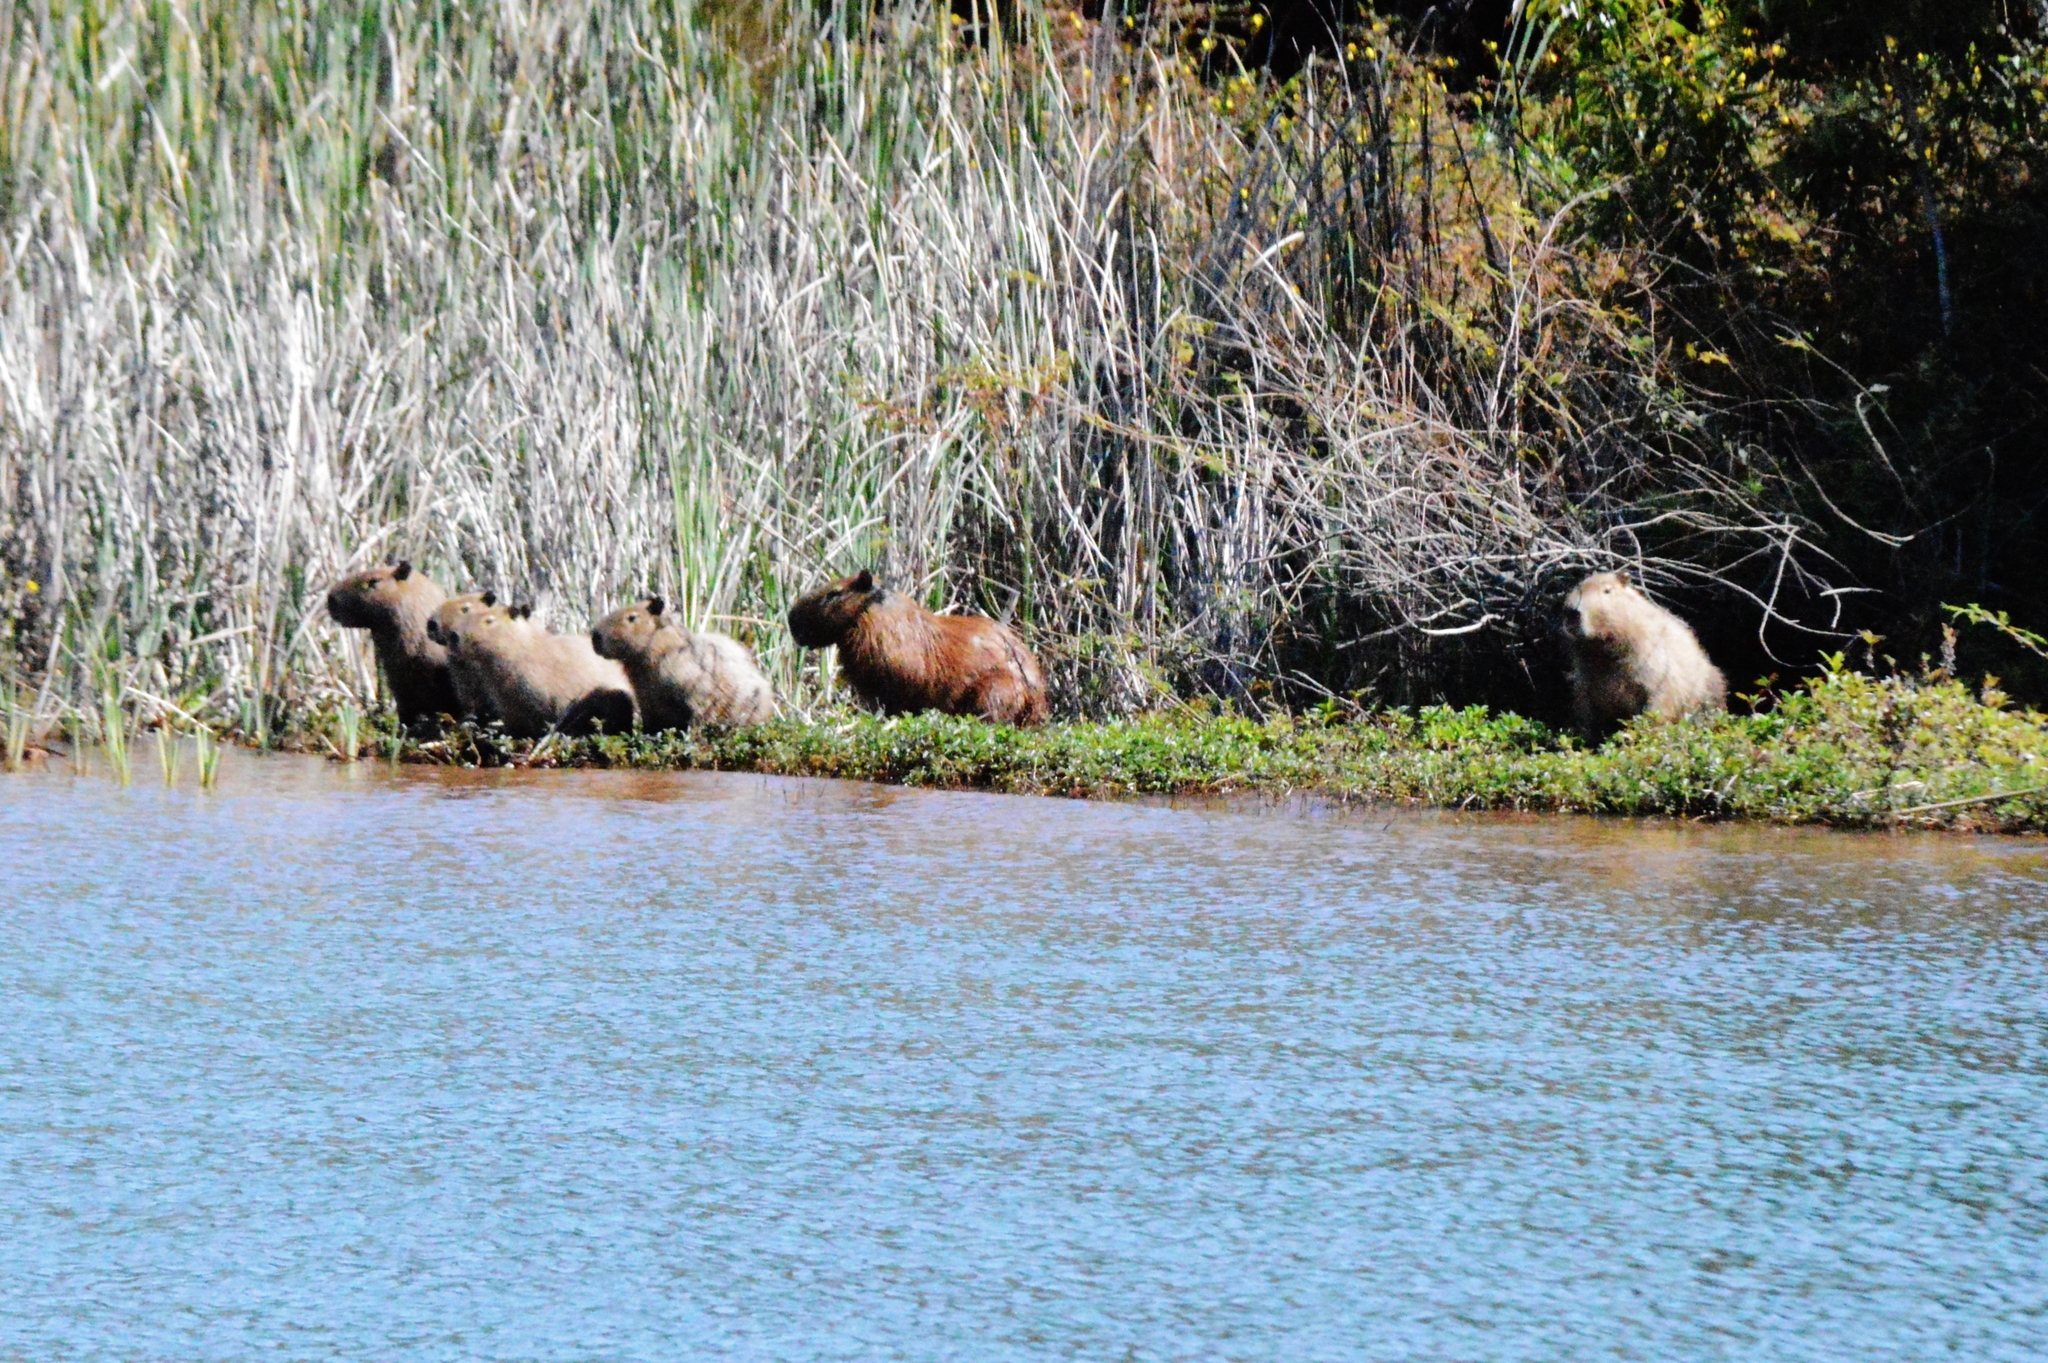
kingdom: Animalia
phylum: Chordata
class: Mammalia
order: Rodentia
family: Caviidae
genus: Hydrochoerus
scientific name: Hydrochoerus hydrochaeris
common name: Capybara
